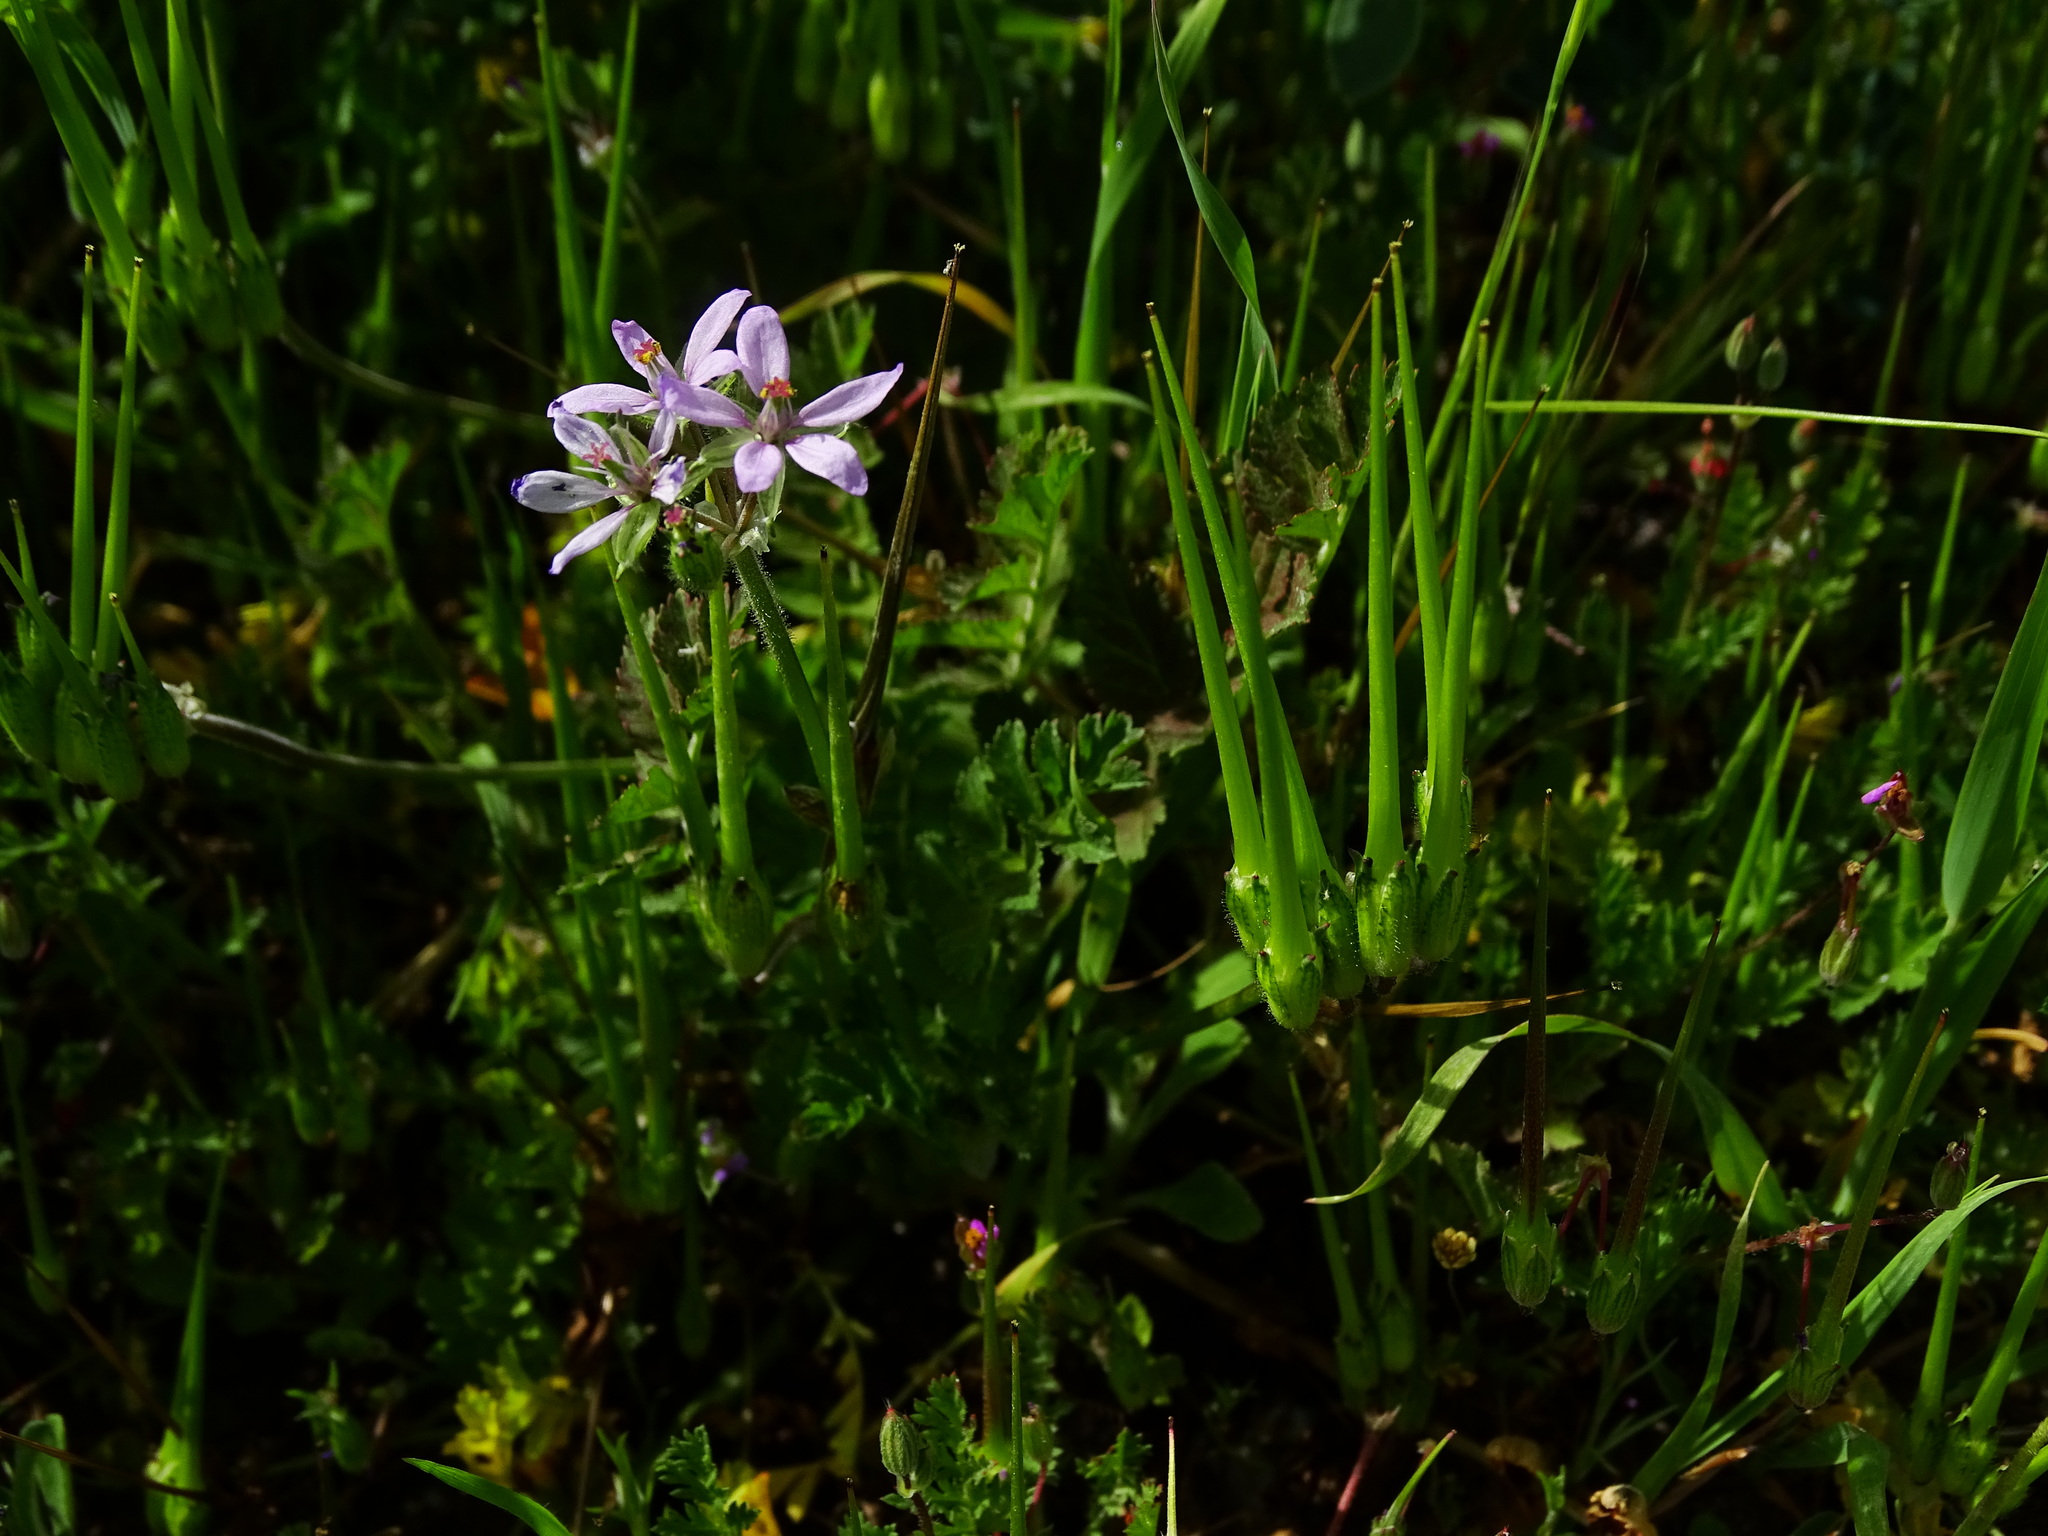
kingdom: Plantae
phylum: Tracheophyta
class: Magnoliopsida
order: Geraniales
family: Geraniaceae
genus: Erodium
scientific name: Erodium moschatum
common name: Musk stork's-bill
